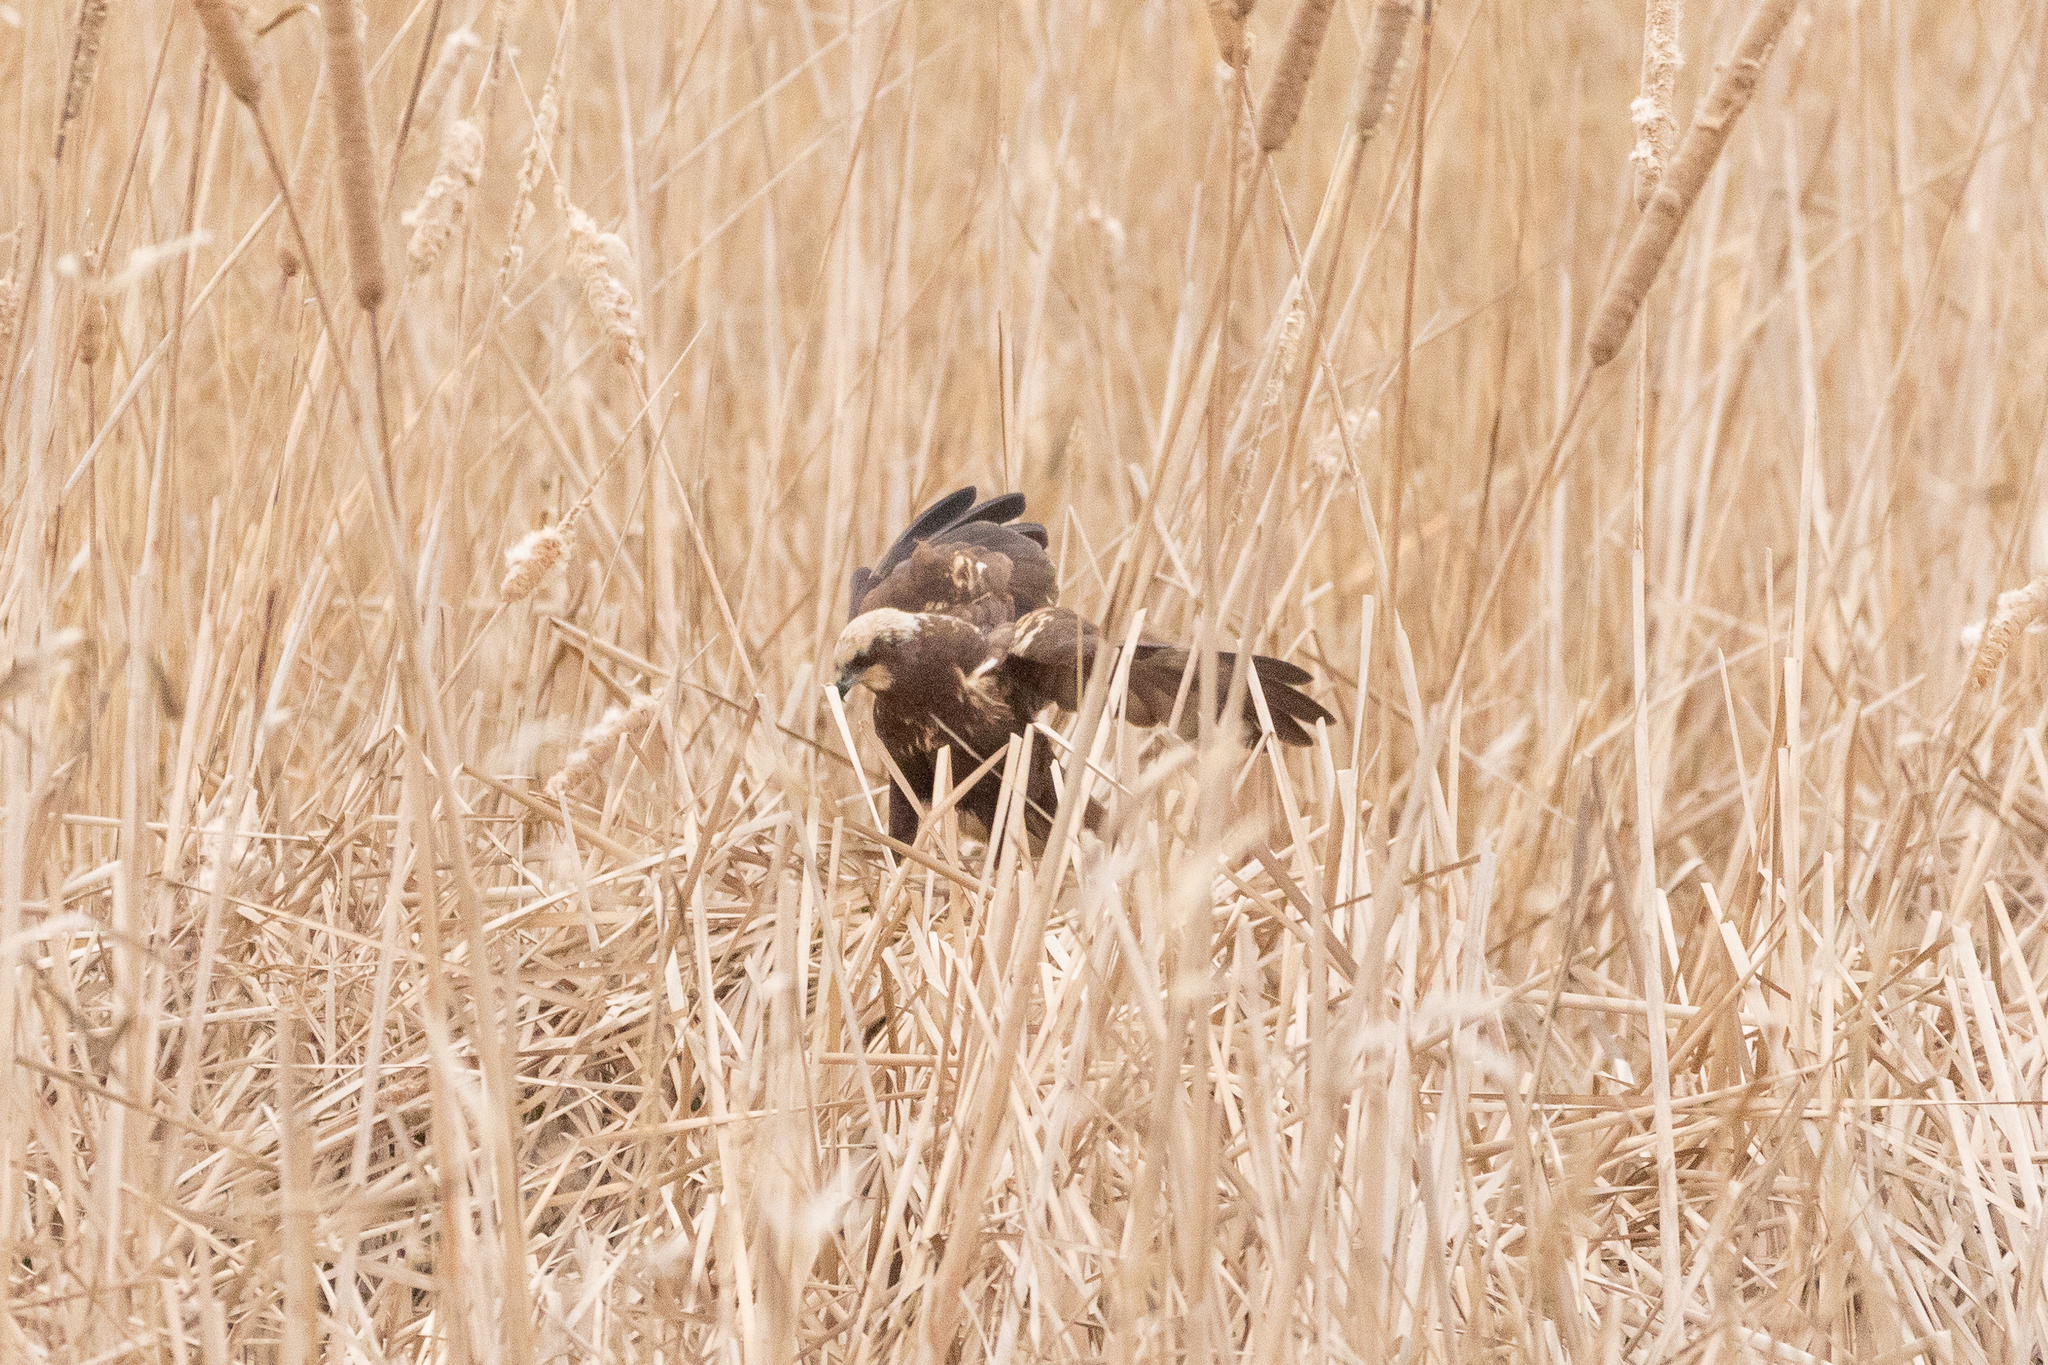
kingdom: Animalia
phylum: Chordata
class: Aves
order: Accipitriformes
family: Accipitridae
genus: Circus
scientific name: Circus aeruginosus
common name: Western marsh harrier
